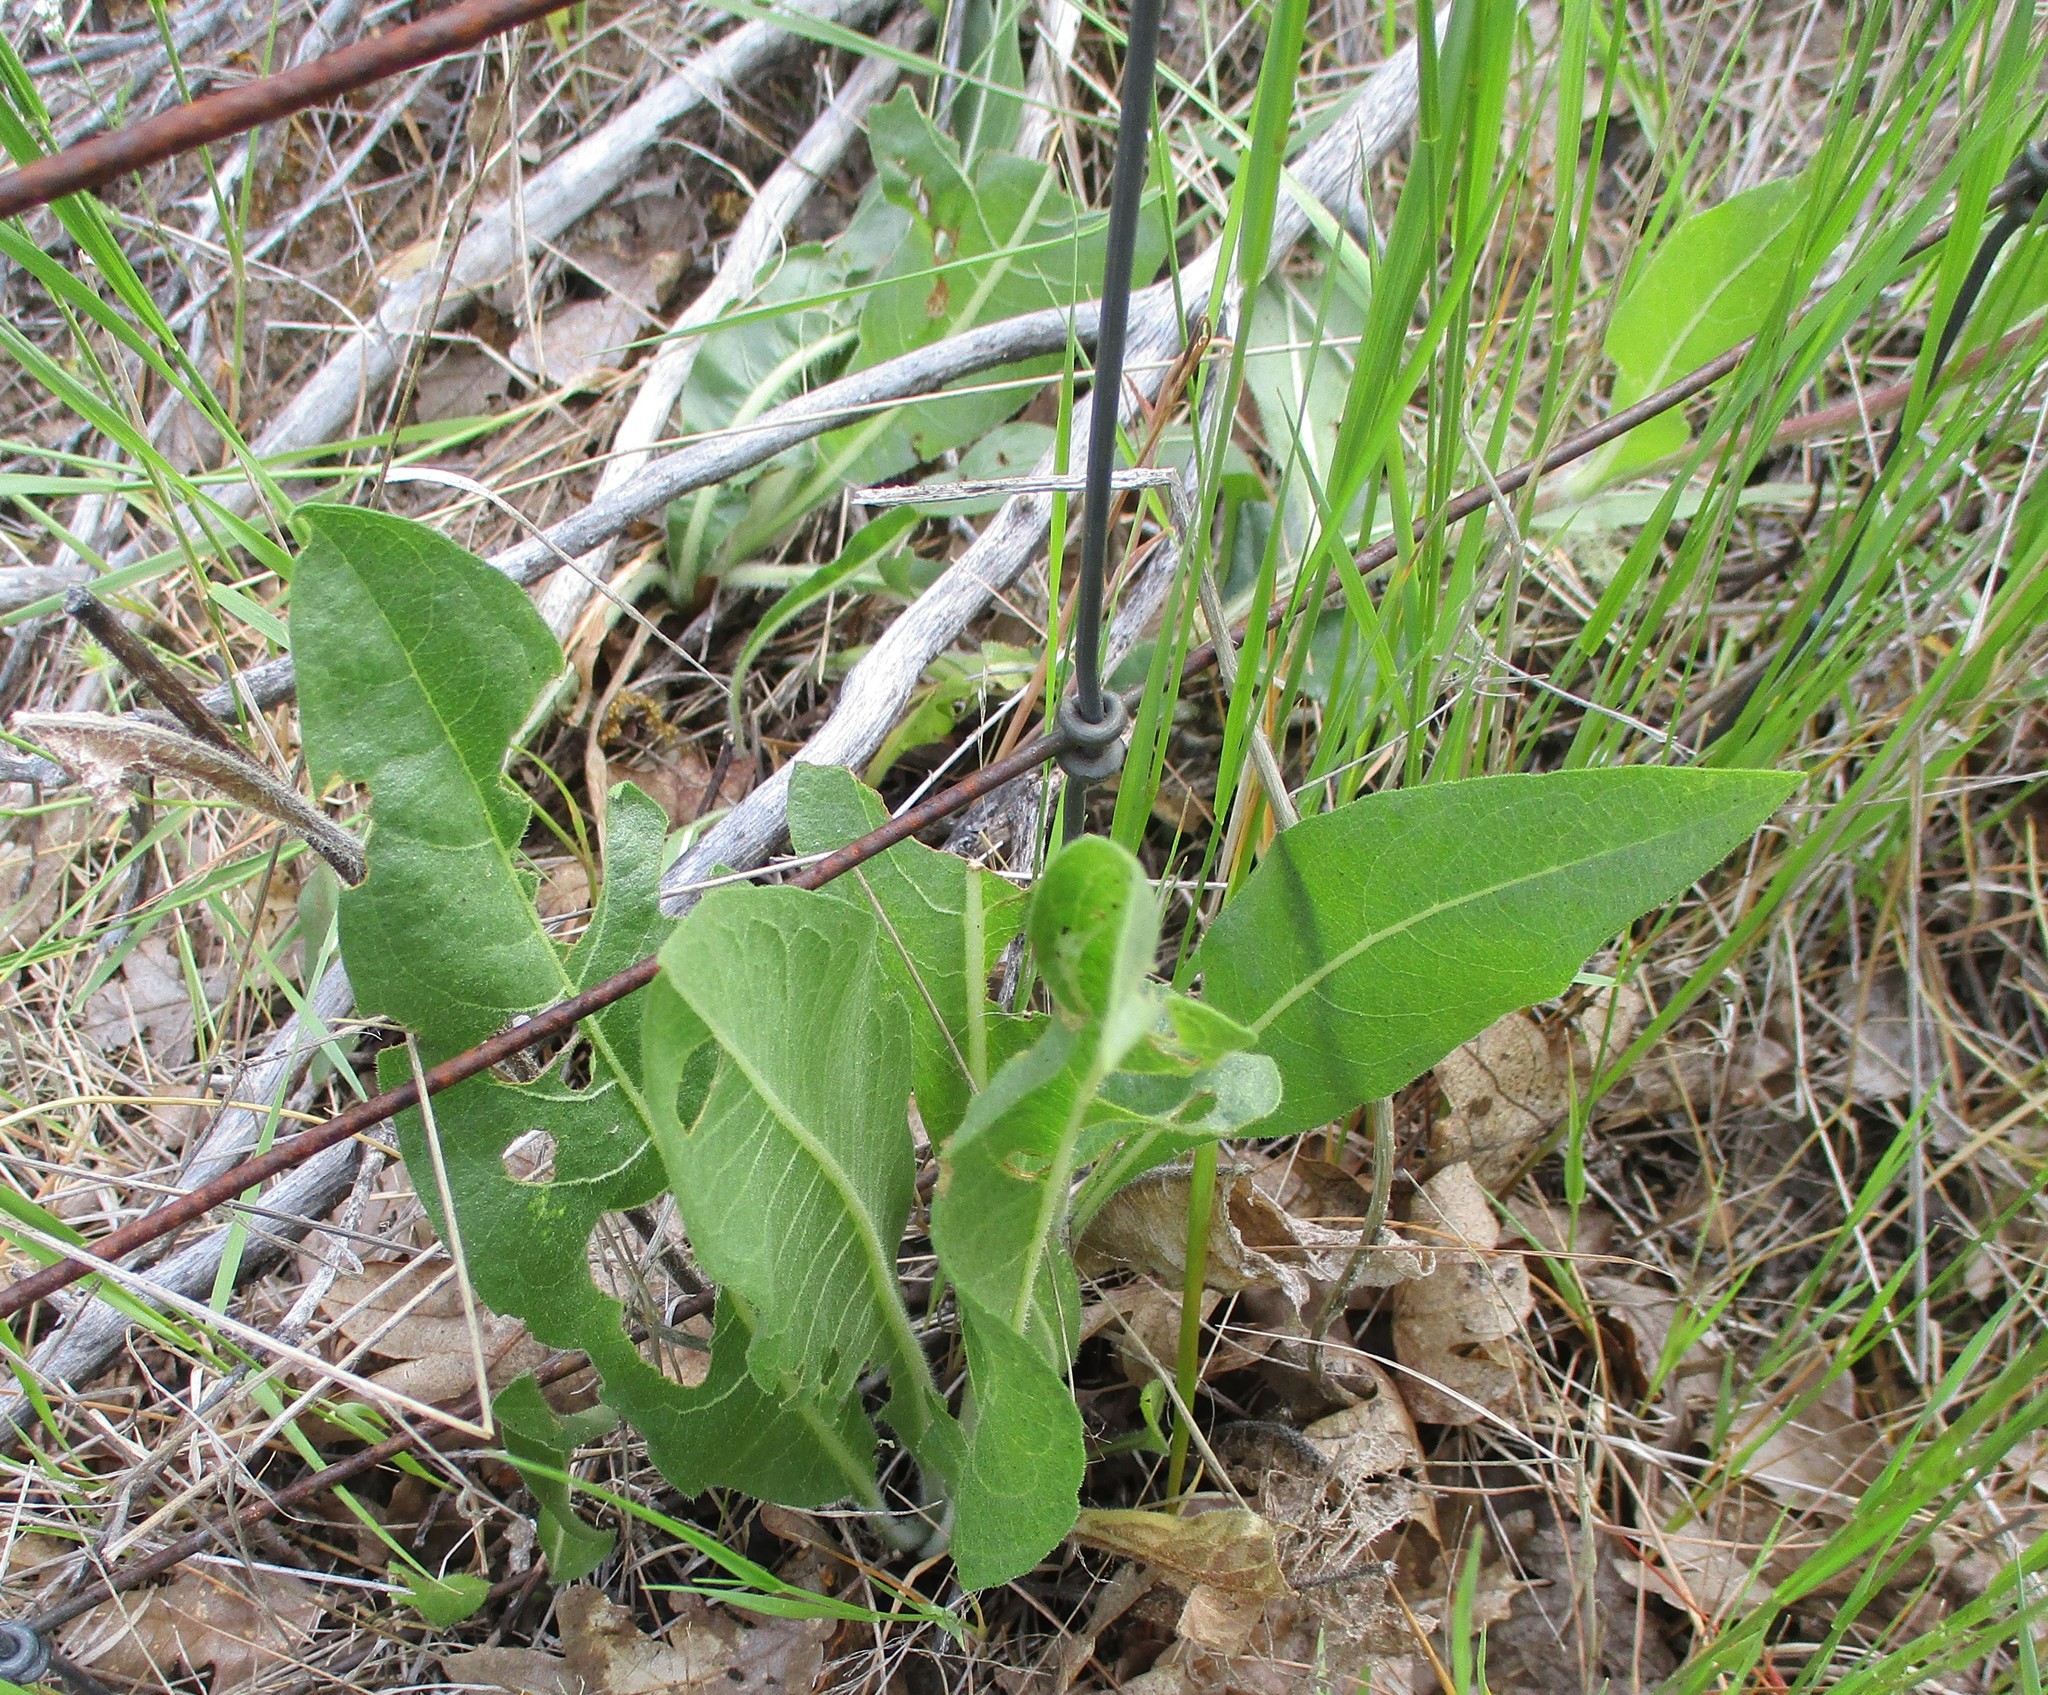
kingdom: Plantae
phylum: Tracheophyta
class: Magnoliopsida
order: Asterales
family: Asteraceae
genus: Wyethia
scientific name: Wyethia angustifolia
